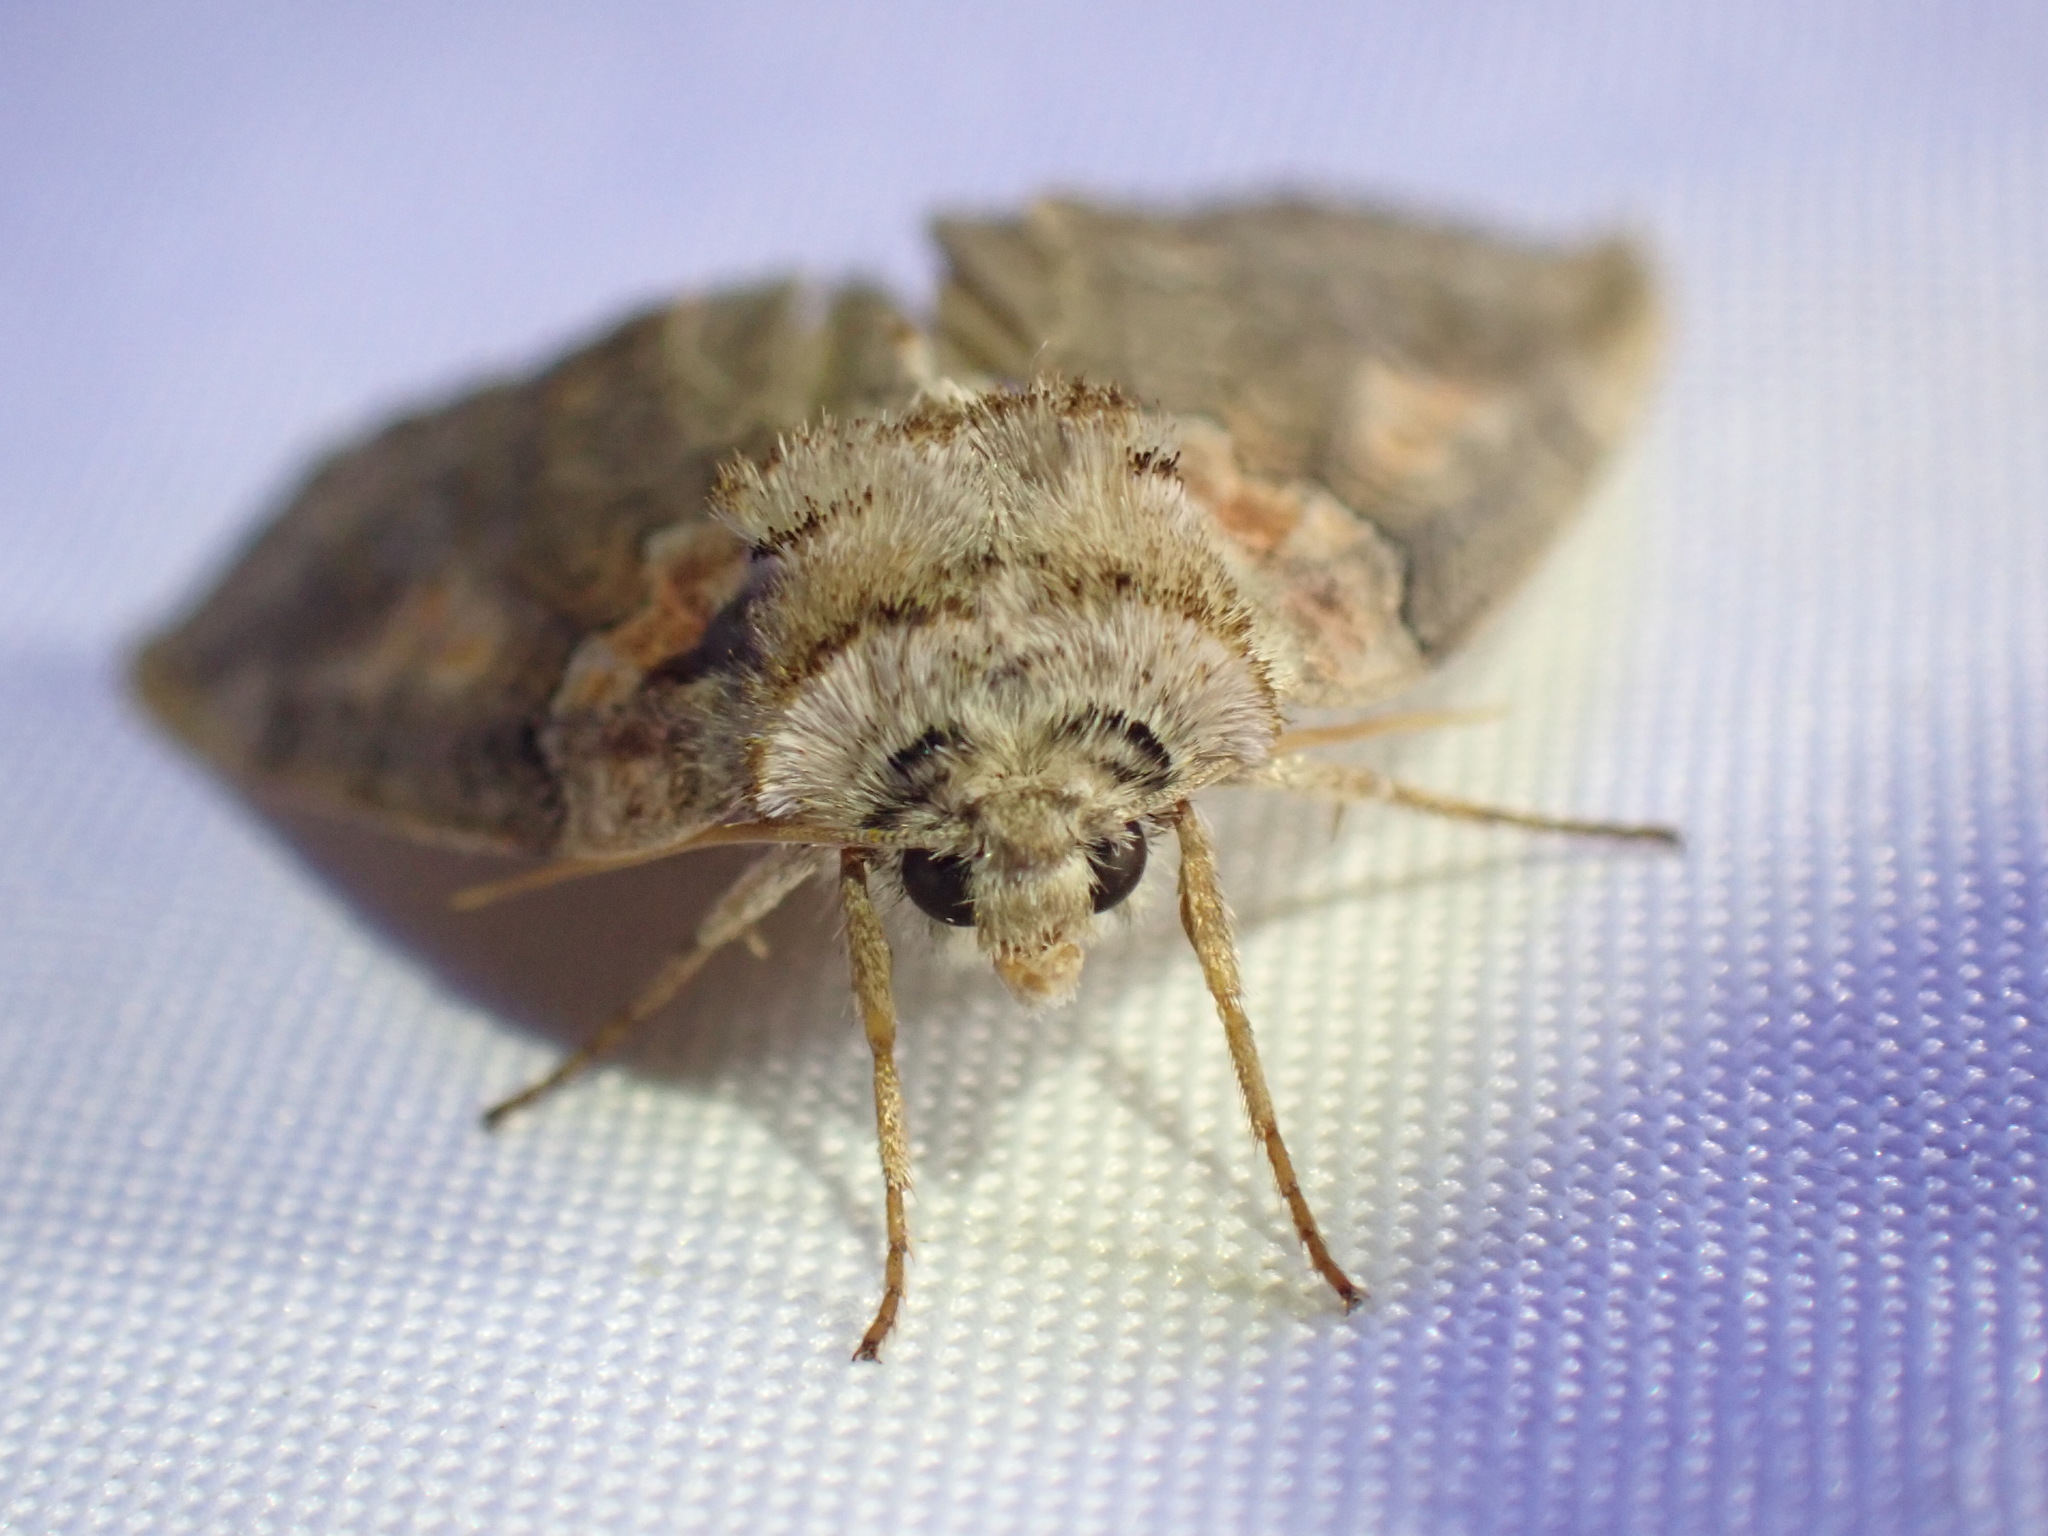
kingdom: Animalia
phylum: Arthropoda
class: Insecta
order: Lepidoptera
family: Drepanidae
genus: Pseudothyatira
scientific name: Pseudothyatira cymatophoroides
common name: Tufted thyatirid moth
